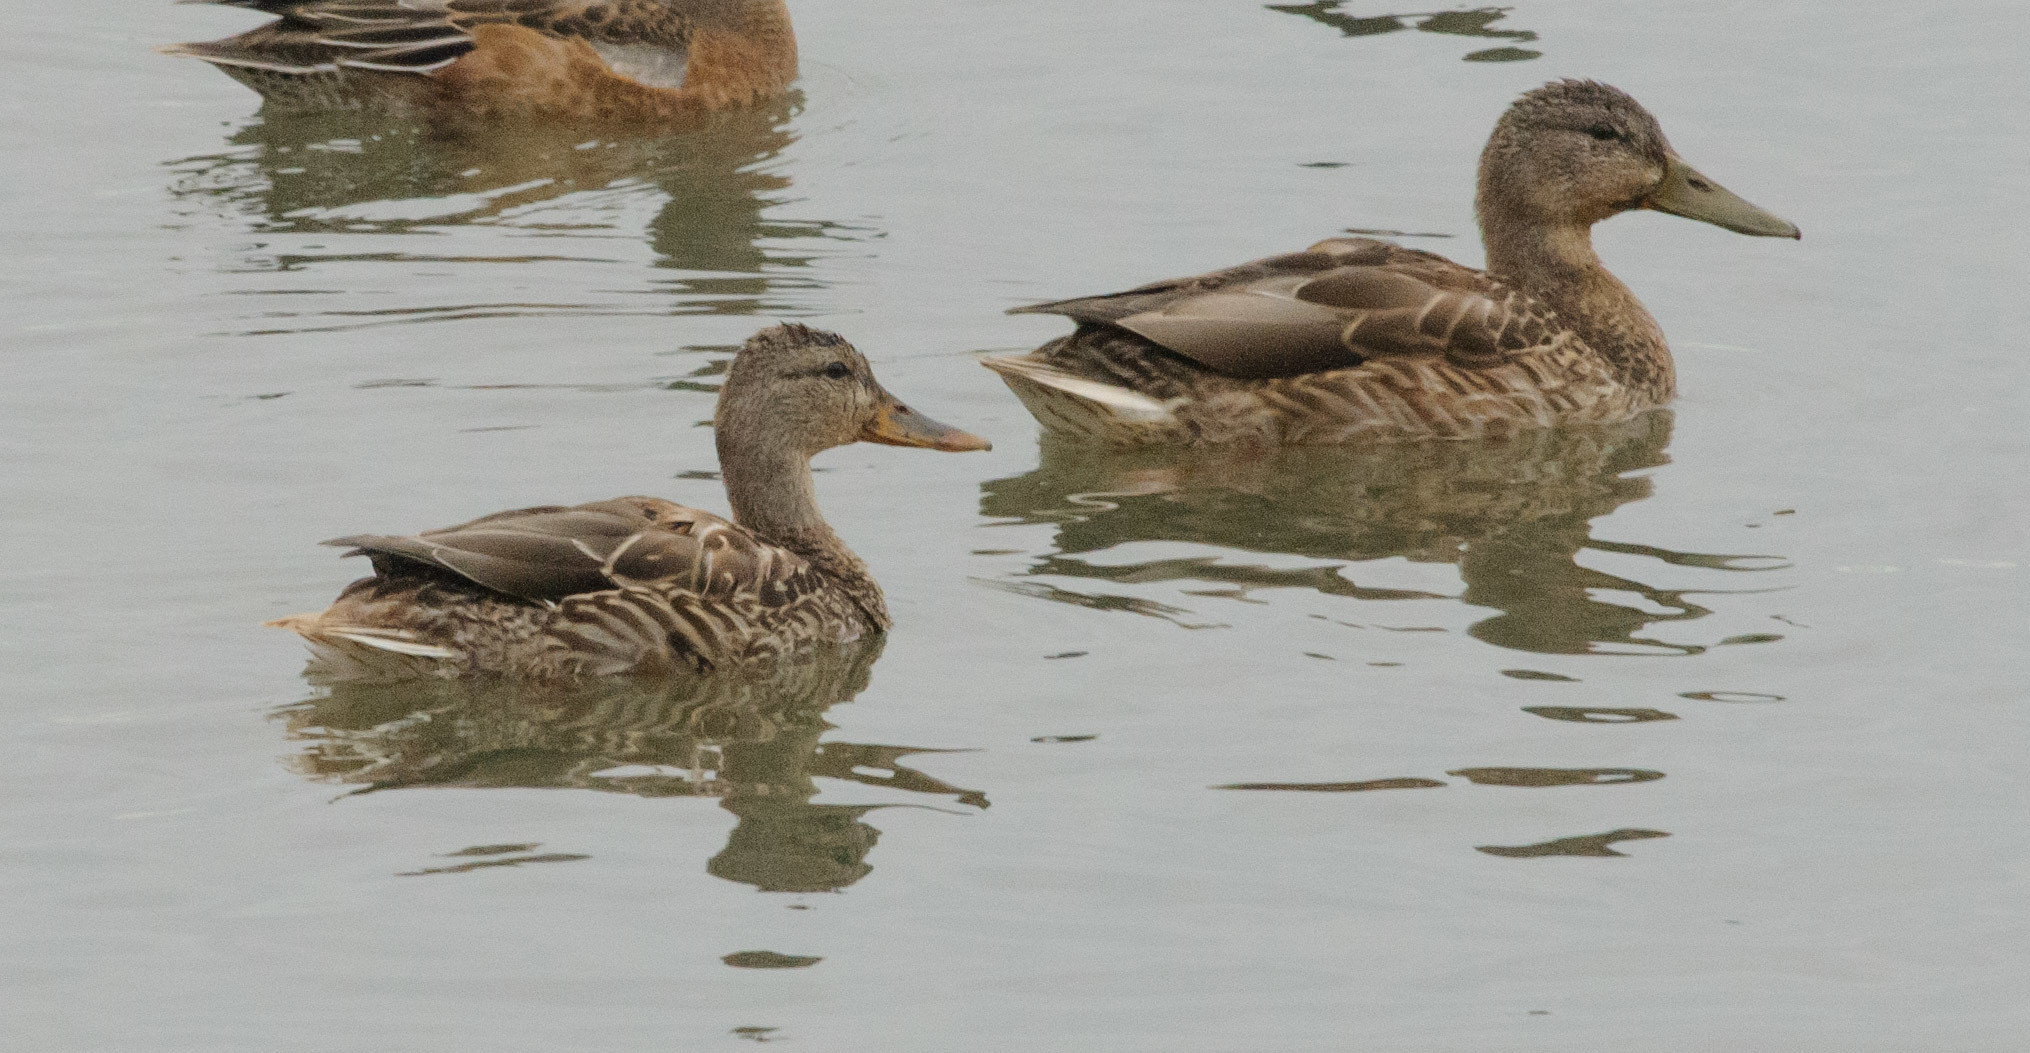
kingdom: Animalia
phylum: Chordata
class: Aves
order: Anseriformes
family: Anatidae
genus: Anas
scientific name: Anas platyrhynchos
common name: Mallard
